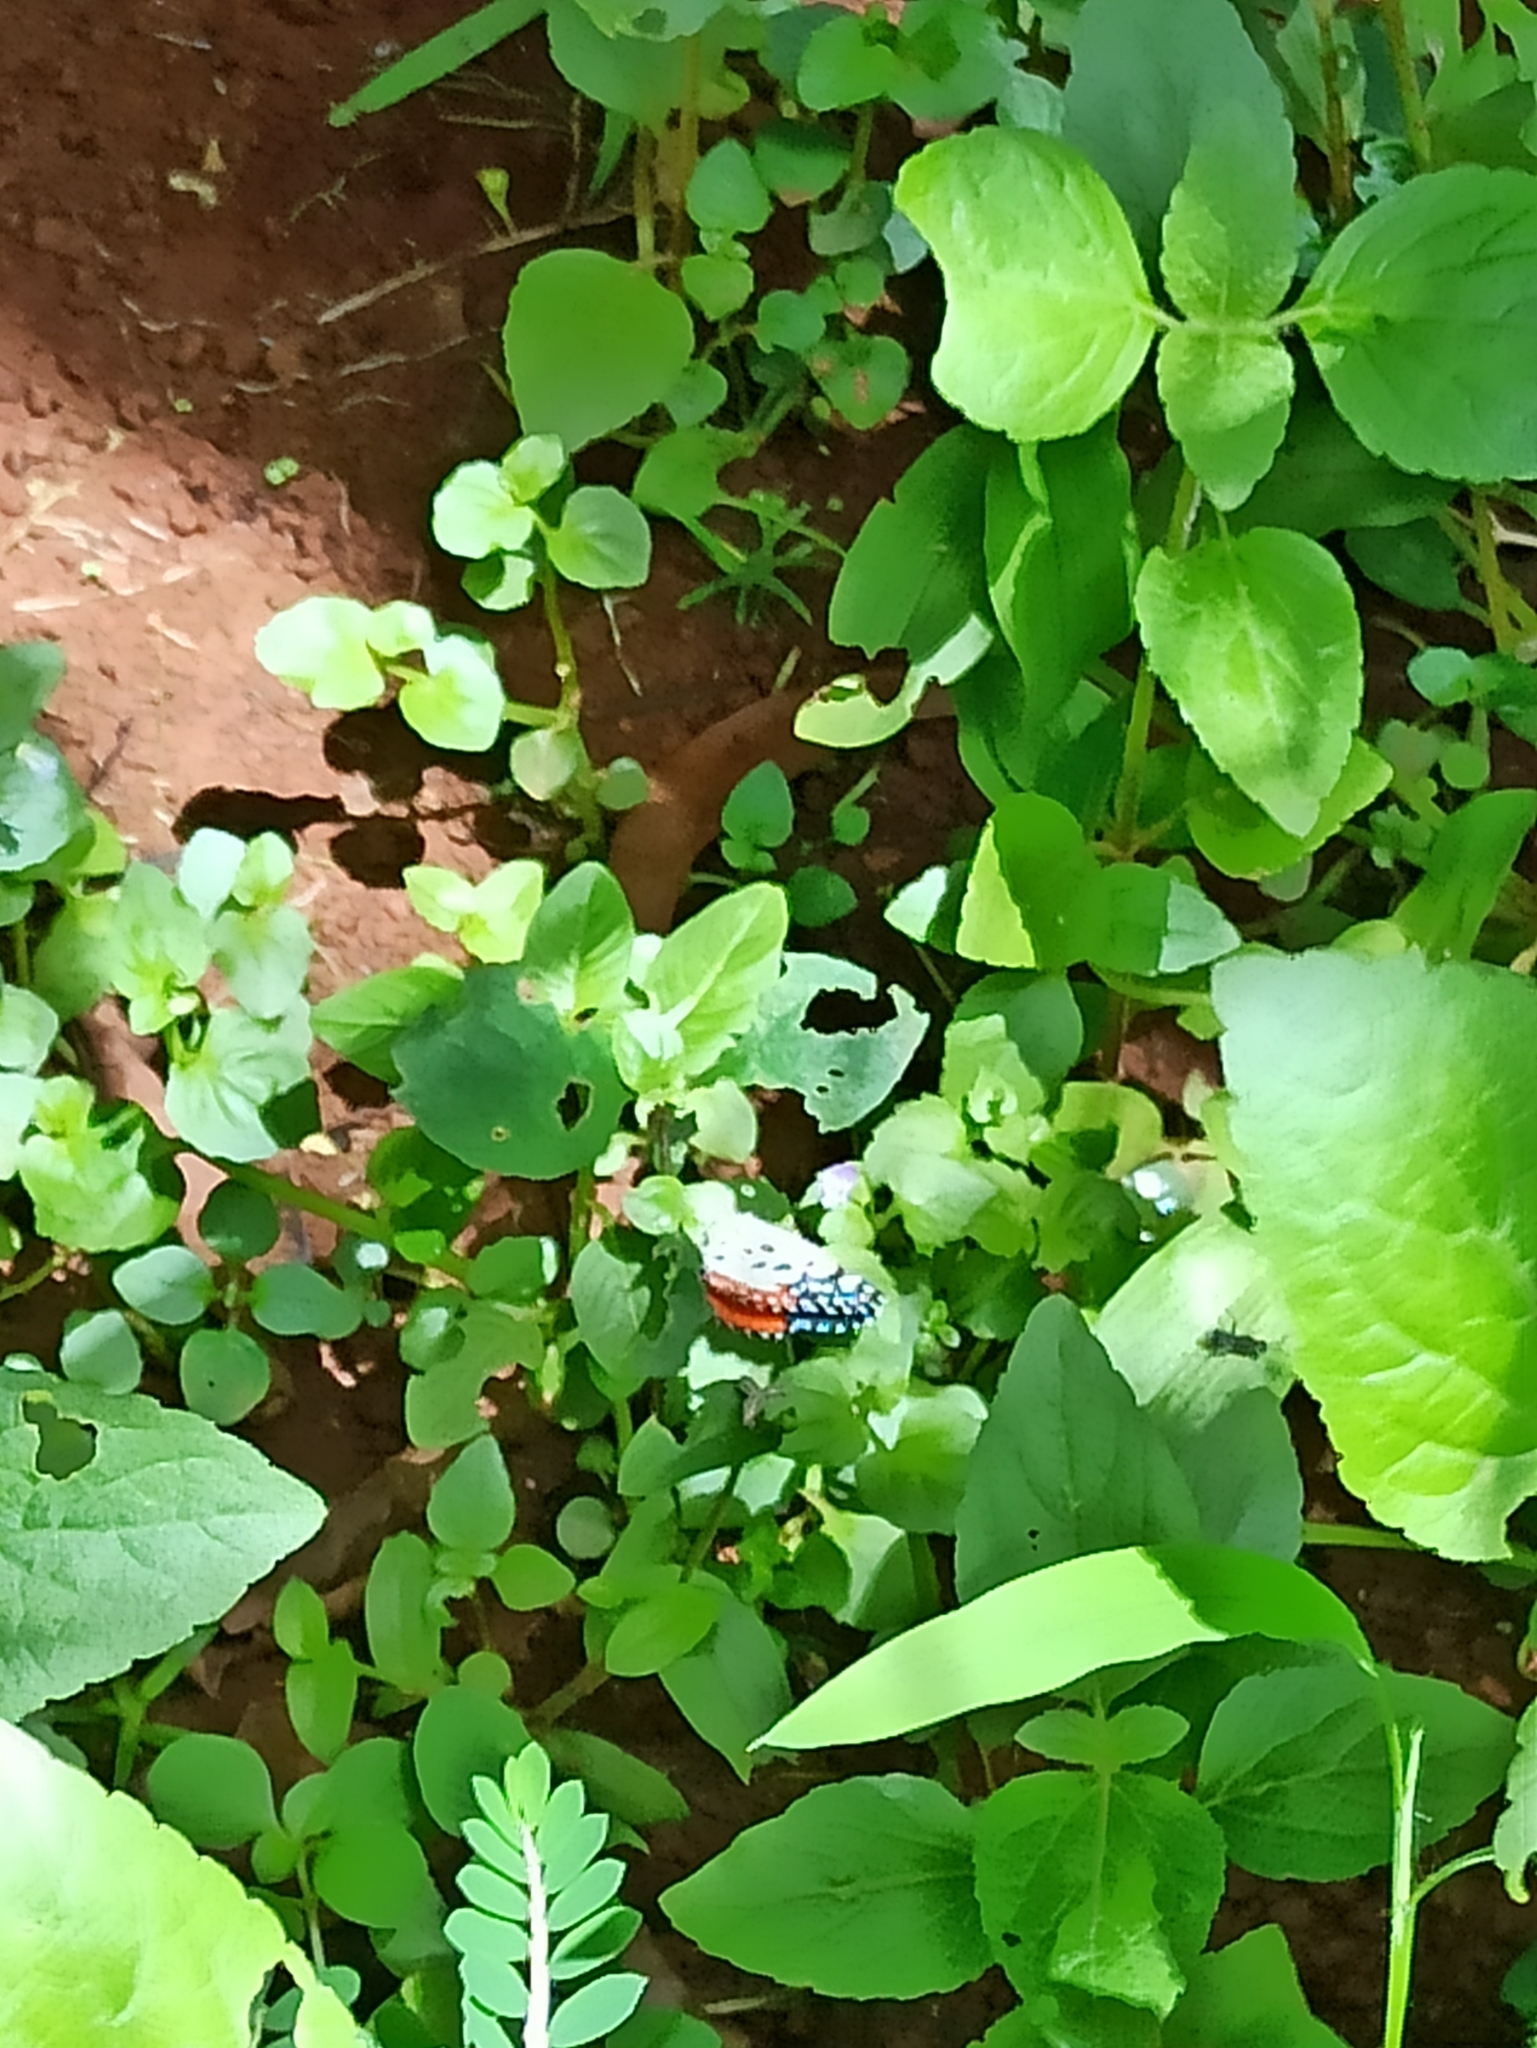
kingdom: Animalia
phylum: Arthropoda
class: Insecta
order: Lepidoptera
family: Lycaenidae
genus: Talicada
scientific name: Talicada nyseus
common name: Red pierrot
